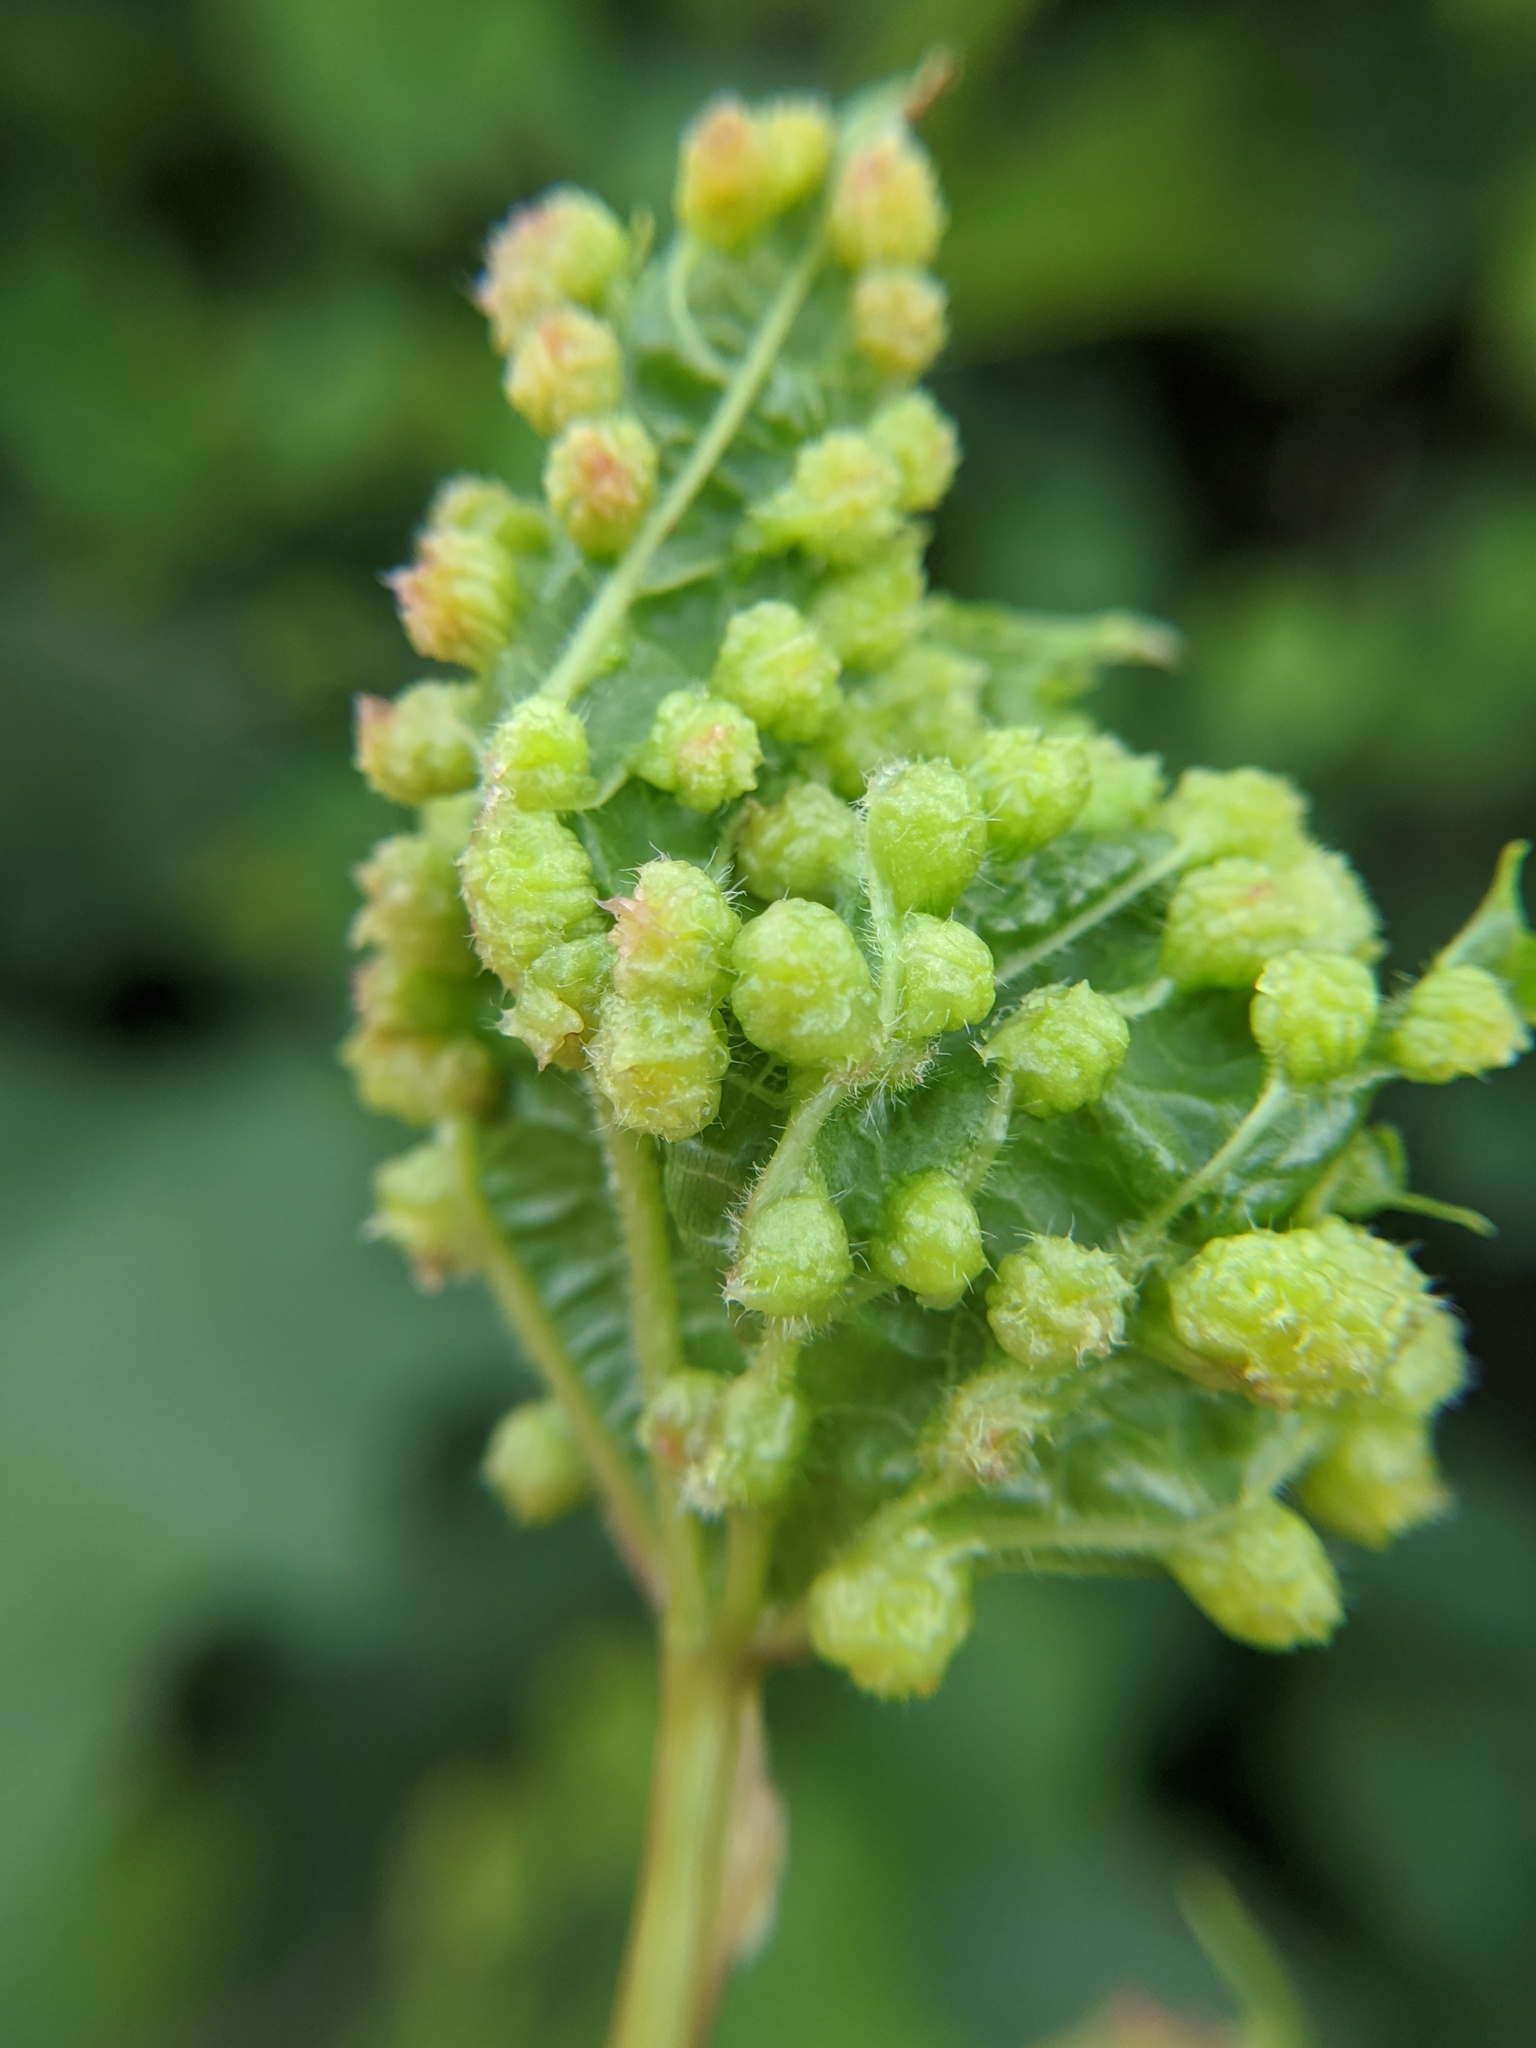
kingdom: Animalia
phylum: Arthropoda
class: Insecta
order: Hemiptera
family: Phylloxeridae
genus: Daktulosphaira
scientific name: Daktulosphaira vitifoliae
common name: Grape phylloxera
